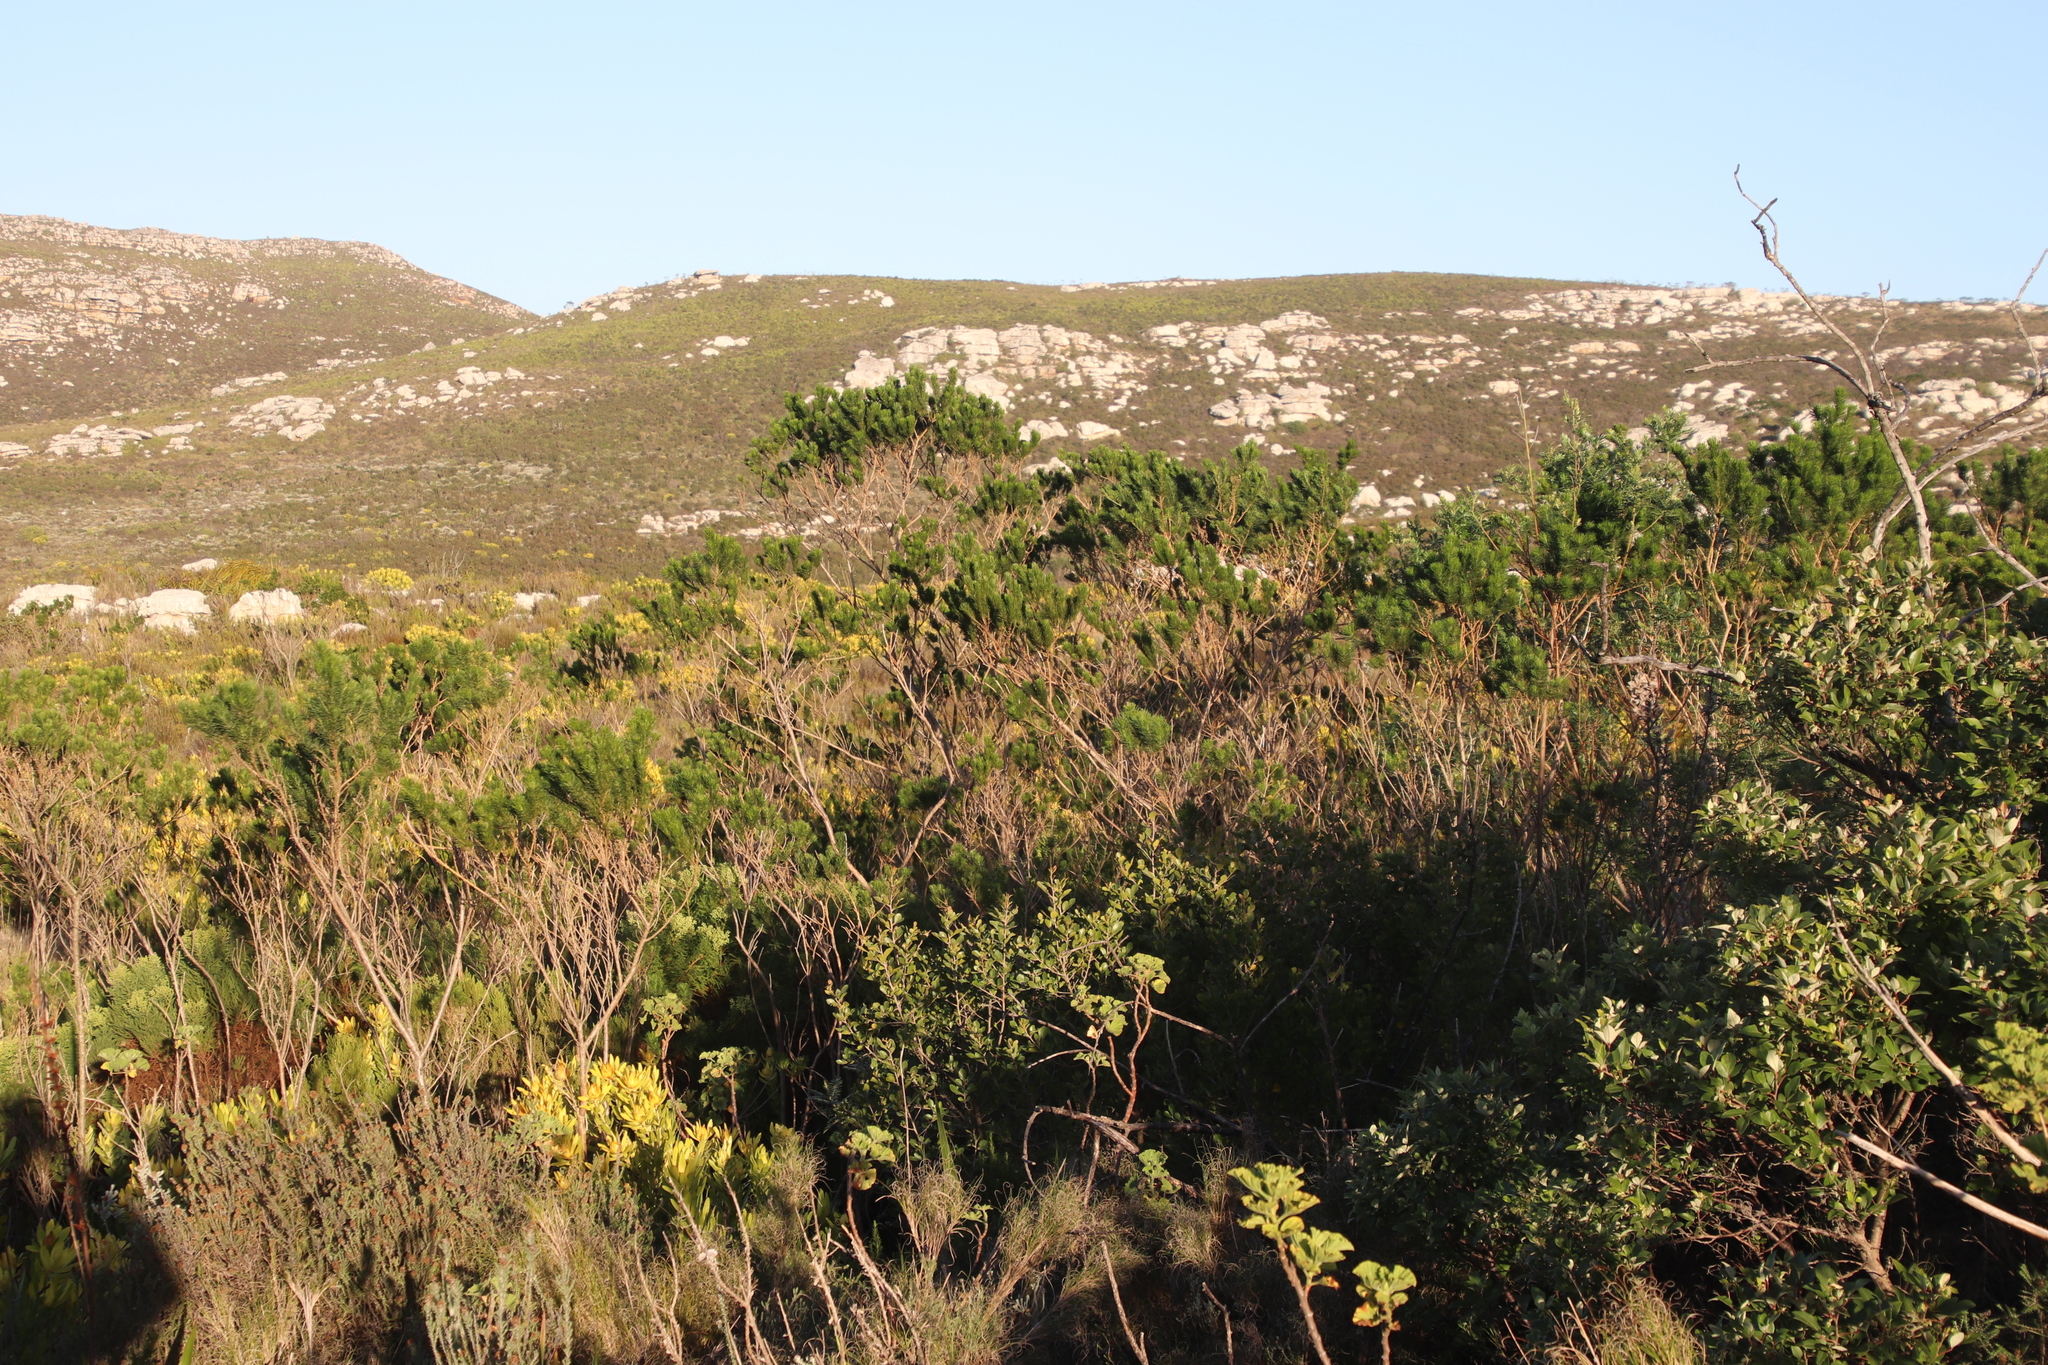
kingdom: Plantae
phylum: Tracheophyta
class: Magnoliopsida
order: Fabales
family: Fabaceae
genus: Psoralea
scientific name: Psoralea pinnata
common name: African scurfpea
